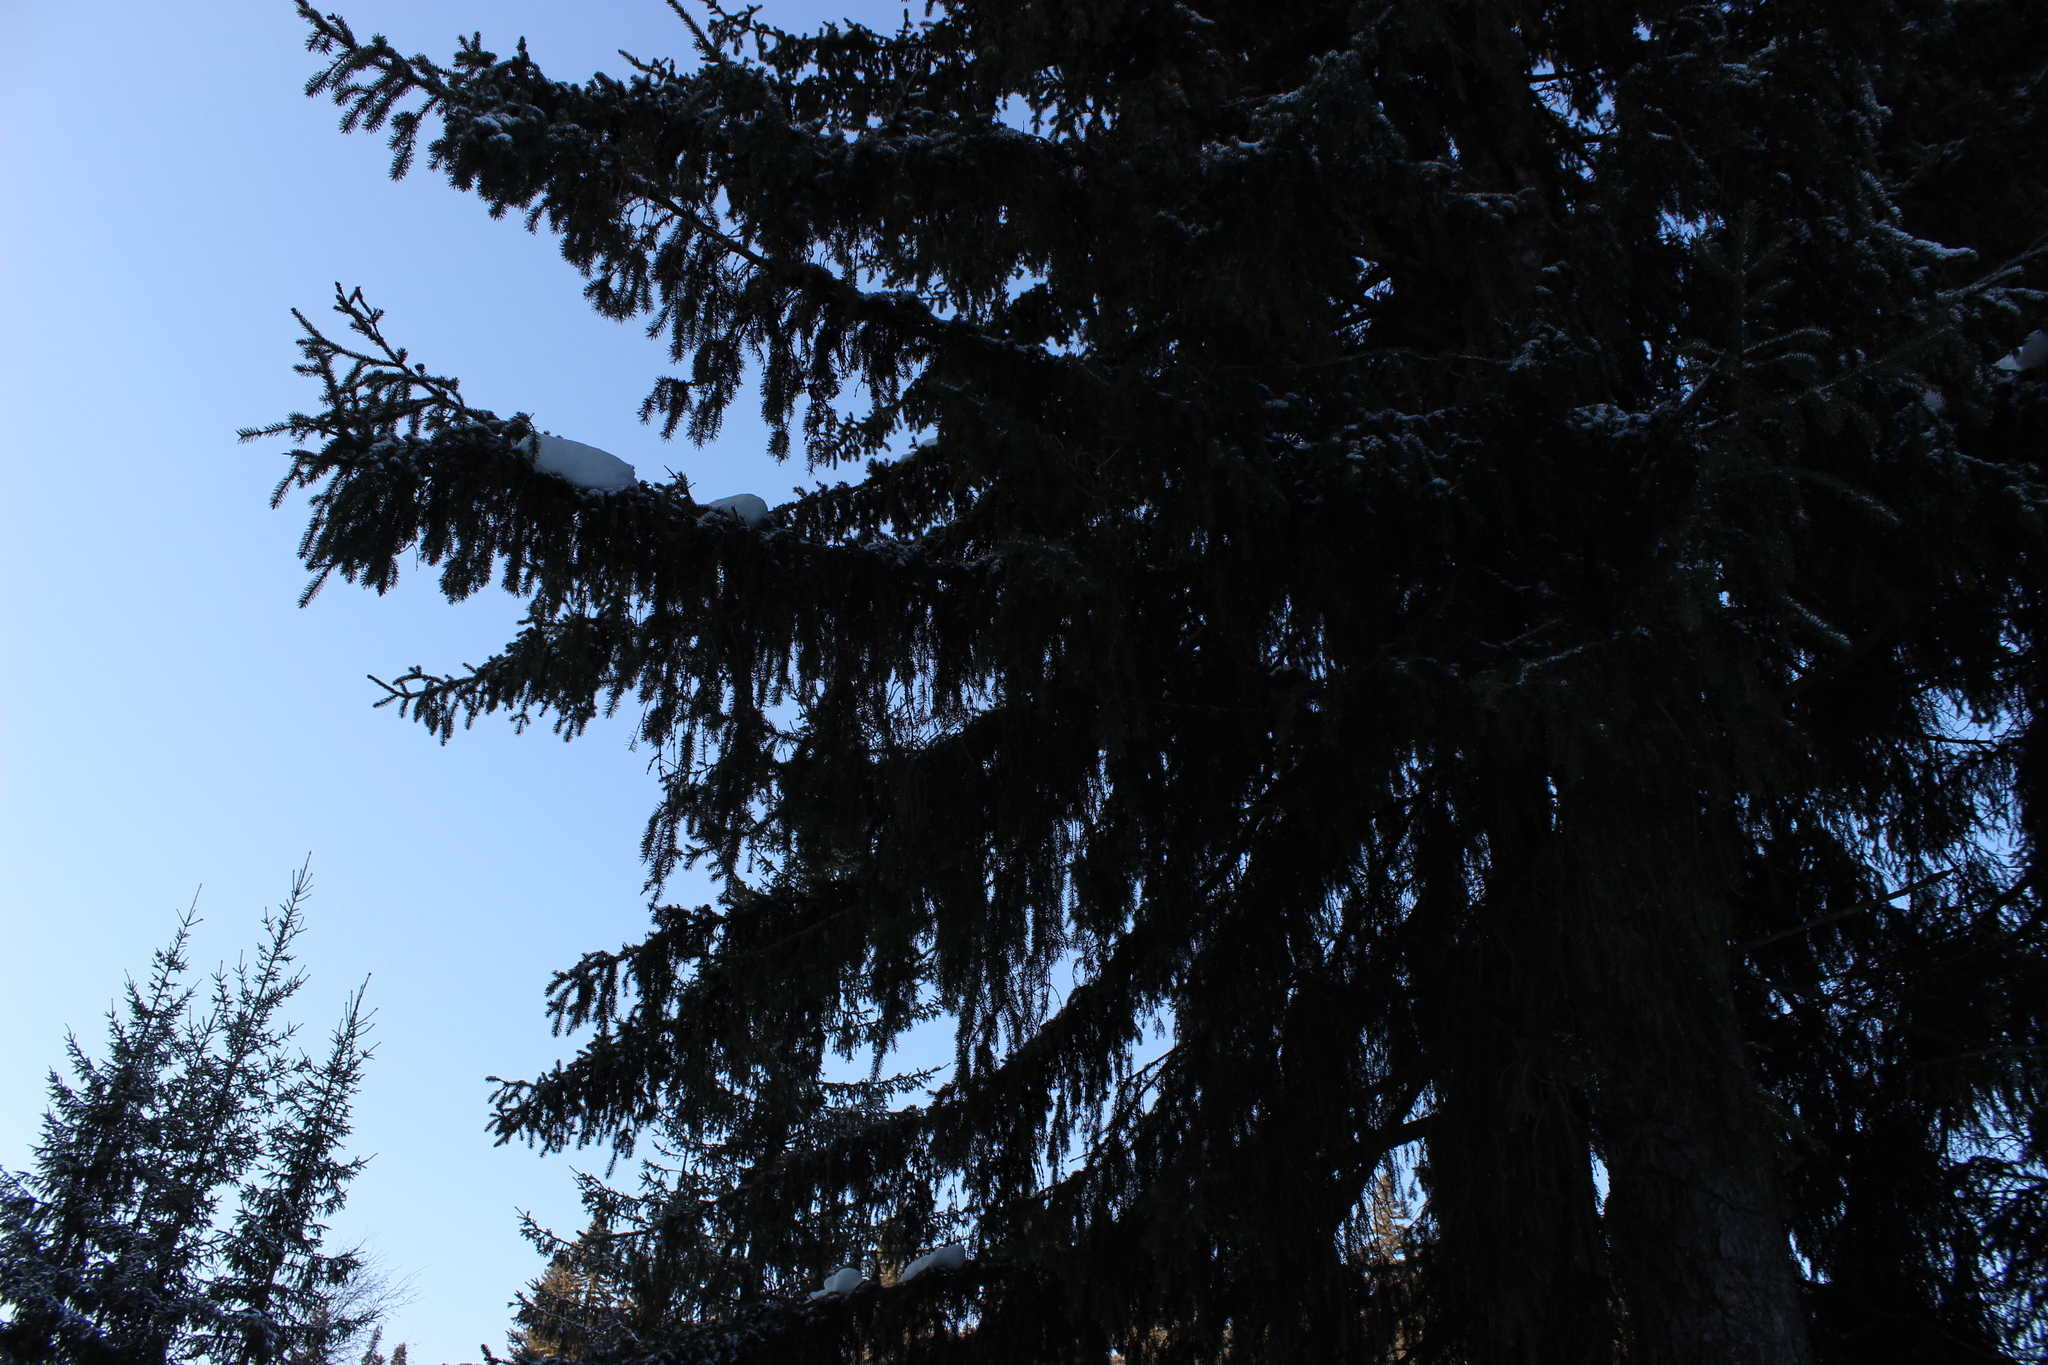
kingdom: Plantae
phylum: Tracheophyta
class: Pinopsida
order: Pinales
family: Pinaceae
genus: Picea
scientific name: Picea obovata
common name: Siberian spruce
